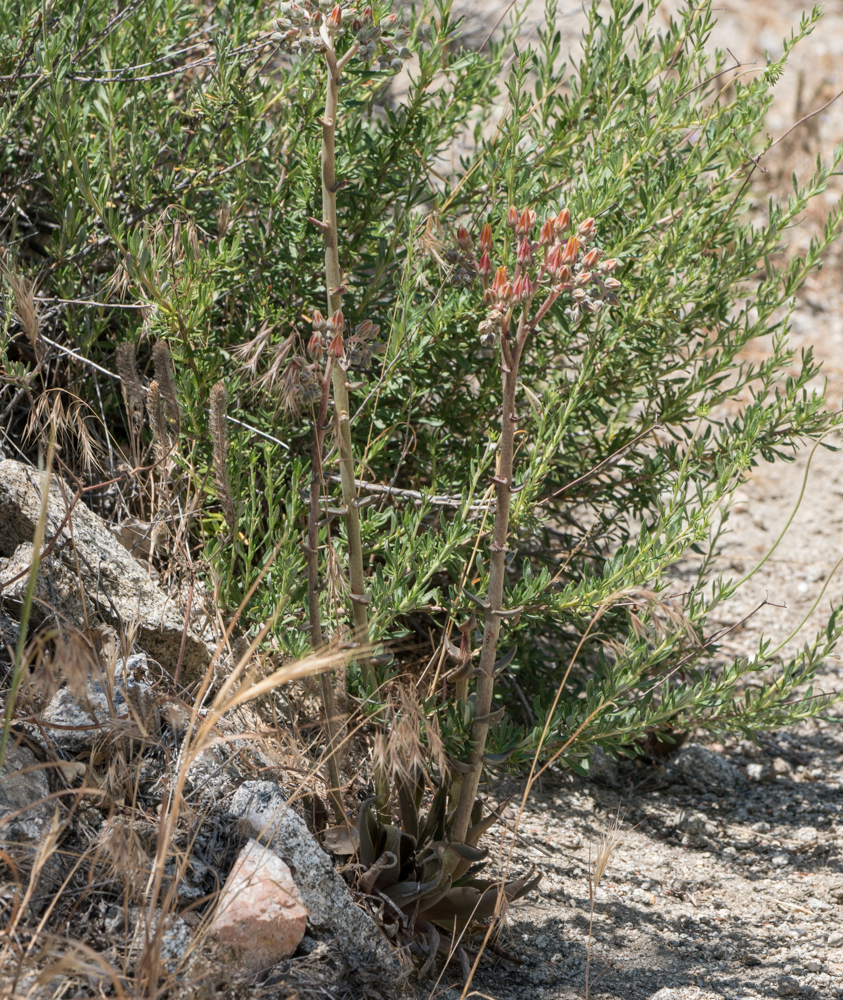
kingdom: Plantae
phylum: Tracheophyta
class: Magnoliopsida
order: Saxifragales
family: Crassulaceae
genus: Dudleya
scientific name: Dudleya lanceolata
